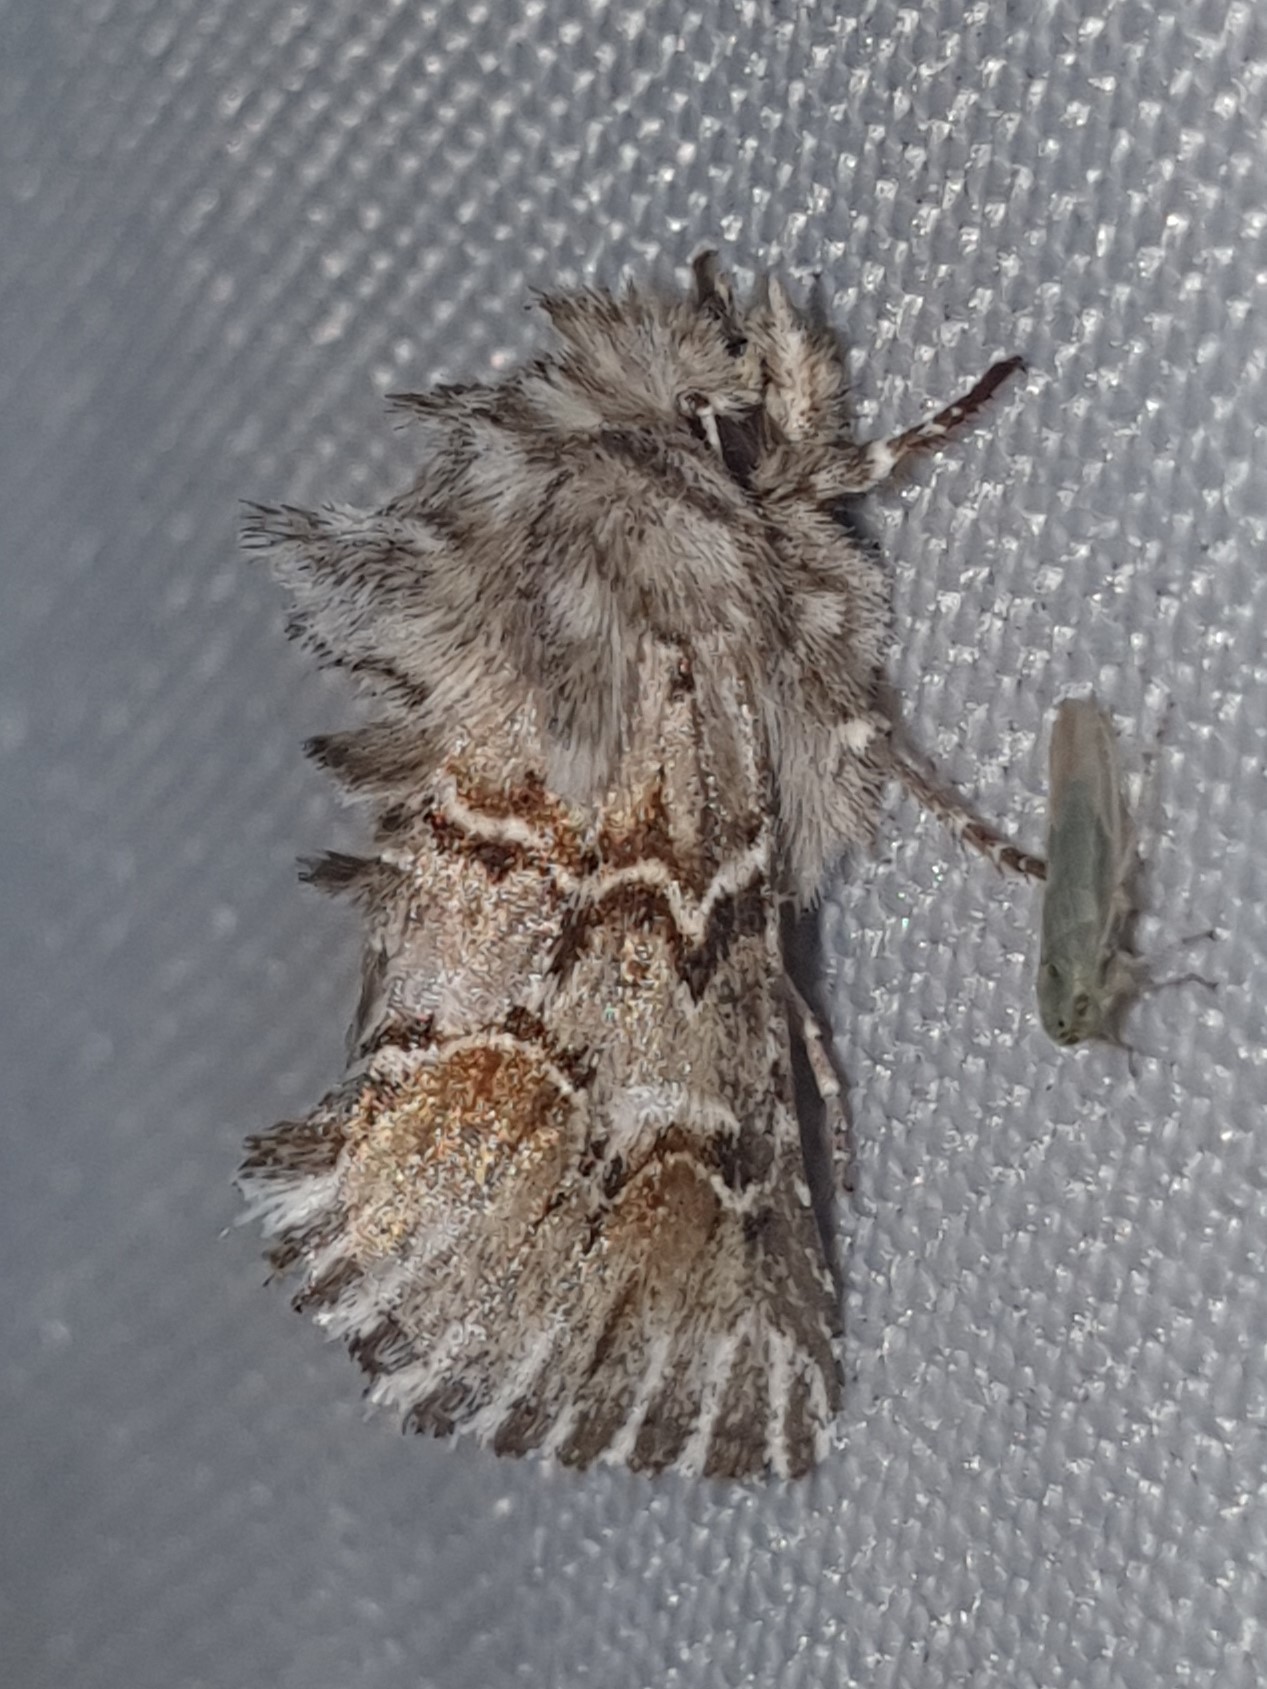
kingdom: Animalia
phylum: Arthropoda
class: Insecta
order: Lepidoptera
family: Noctuidae
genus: Cleonymia
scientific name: Cleonymia baetica
